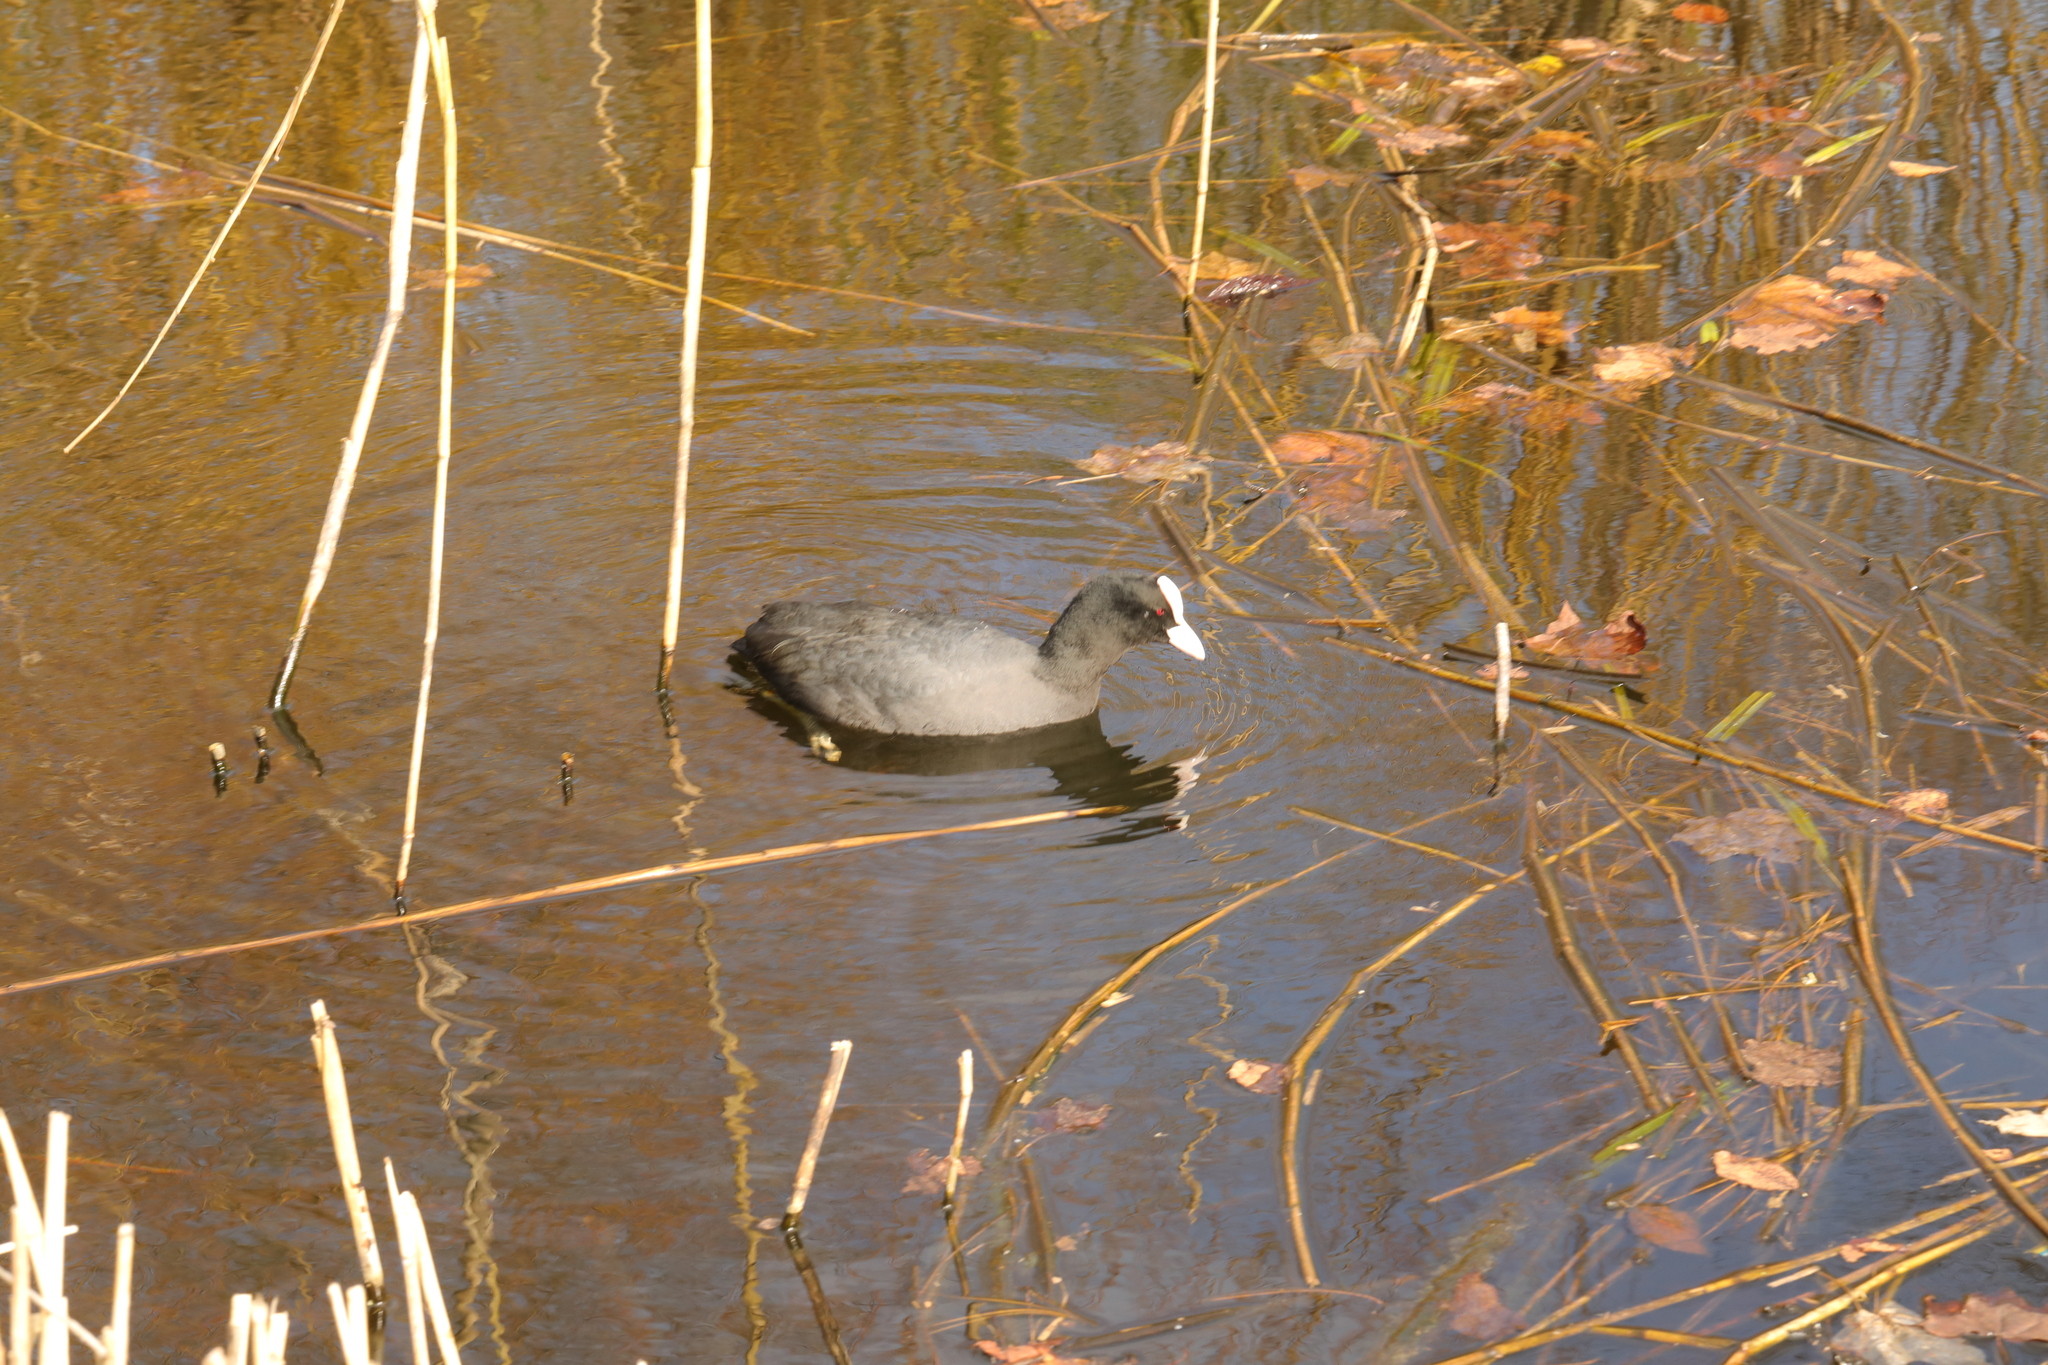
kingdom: Animalia
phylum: Chordata
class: Aves
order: Gruiformes
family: Rallidae
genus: Fulica
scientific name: Fulica atra
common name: Eurasian coot
